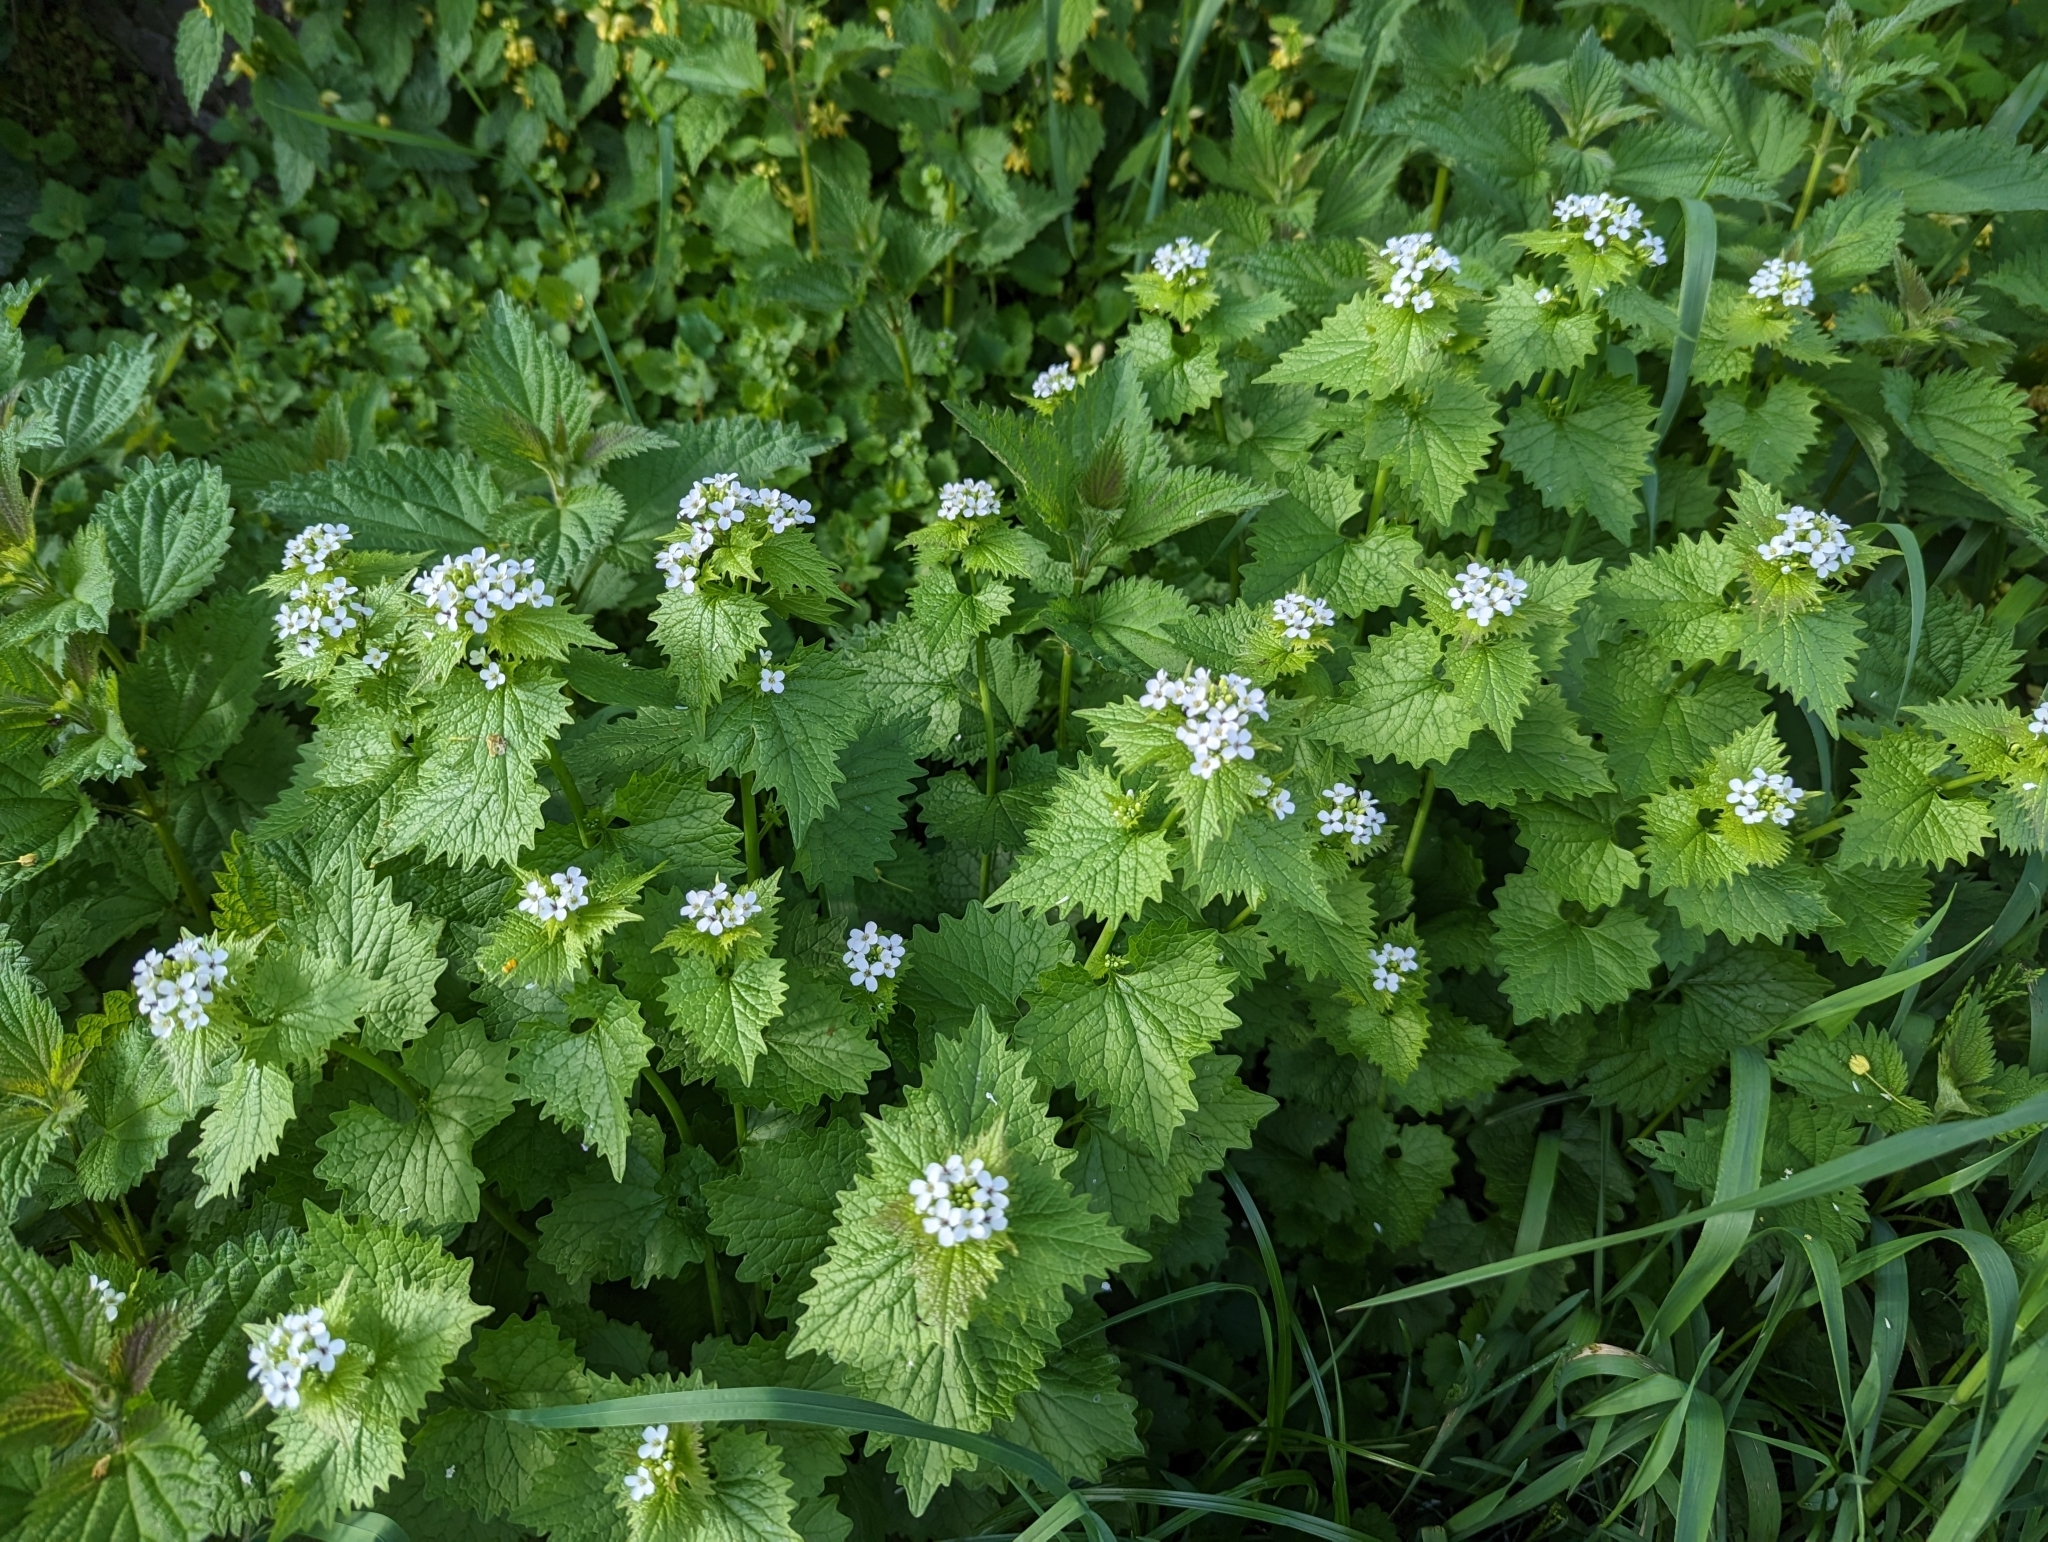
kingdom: Plantae
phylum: Tracheophyta
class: Magnoliopsida
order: Brassicales
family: Brassicaceae
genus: Alliaria
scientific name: Alliaria petiolata
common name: Garlic mustard
